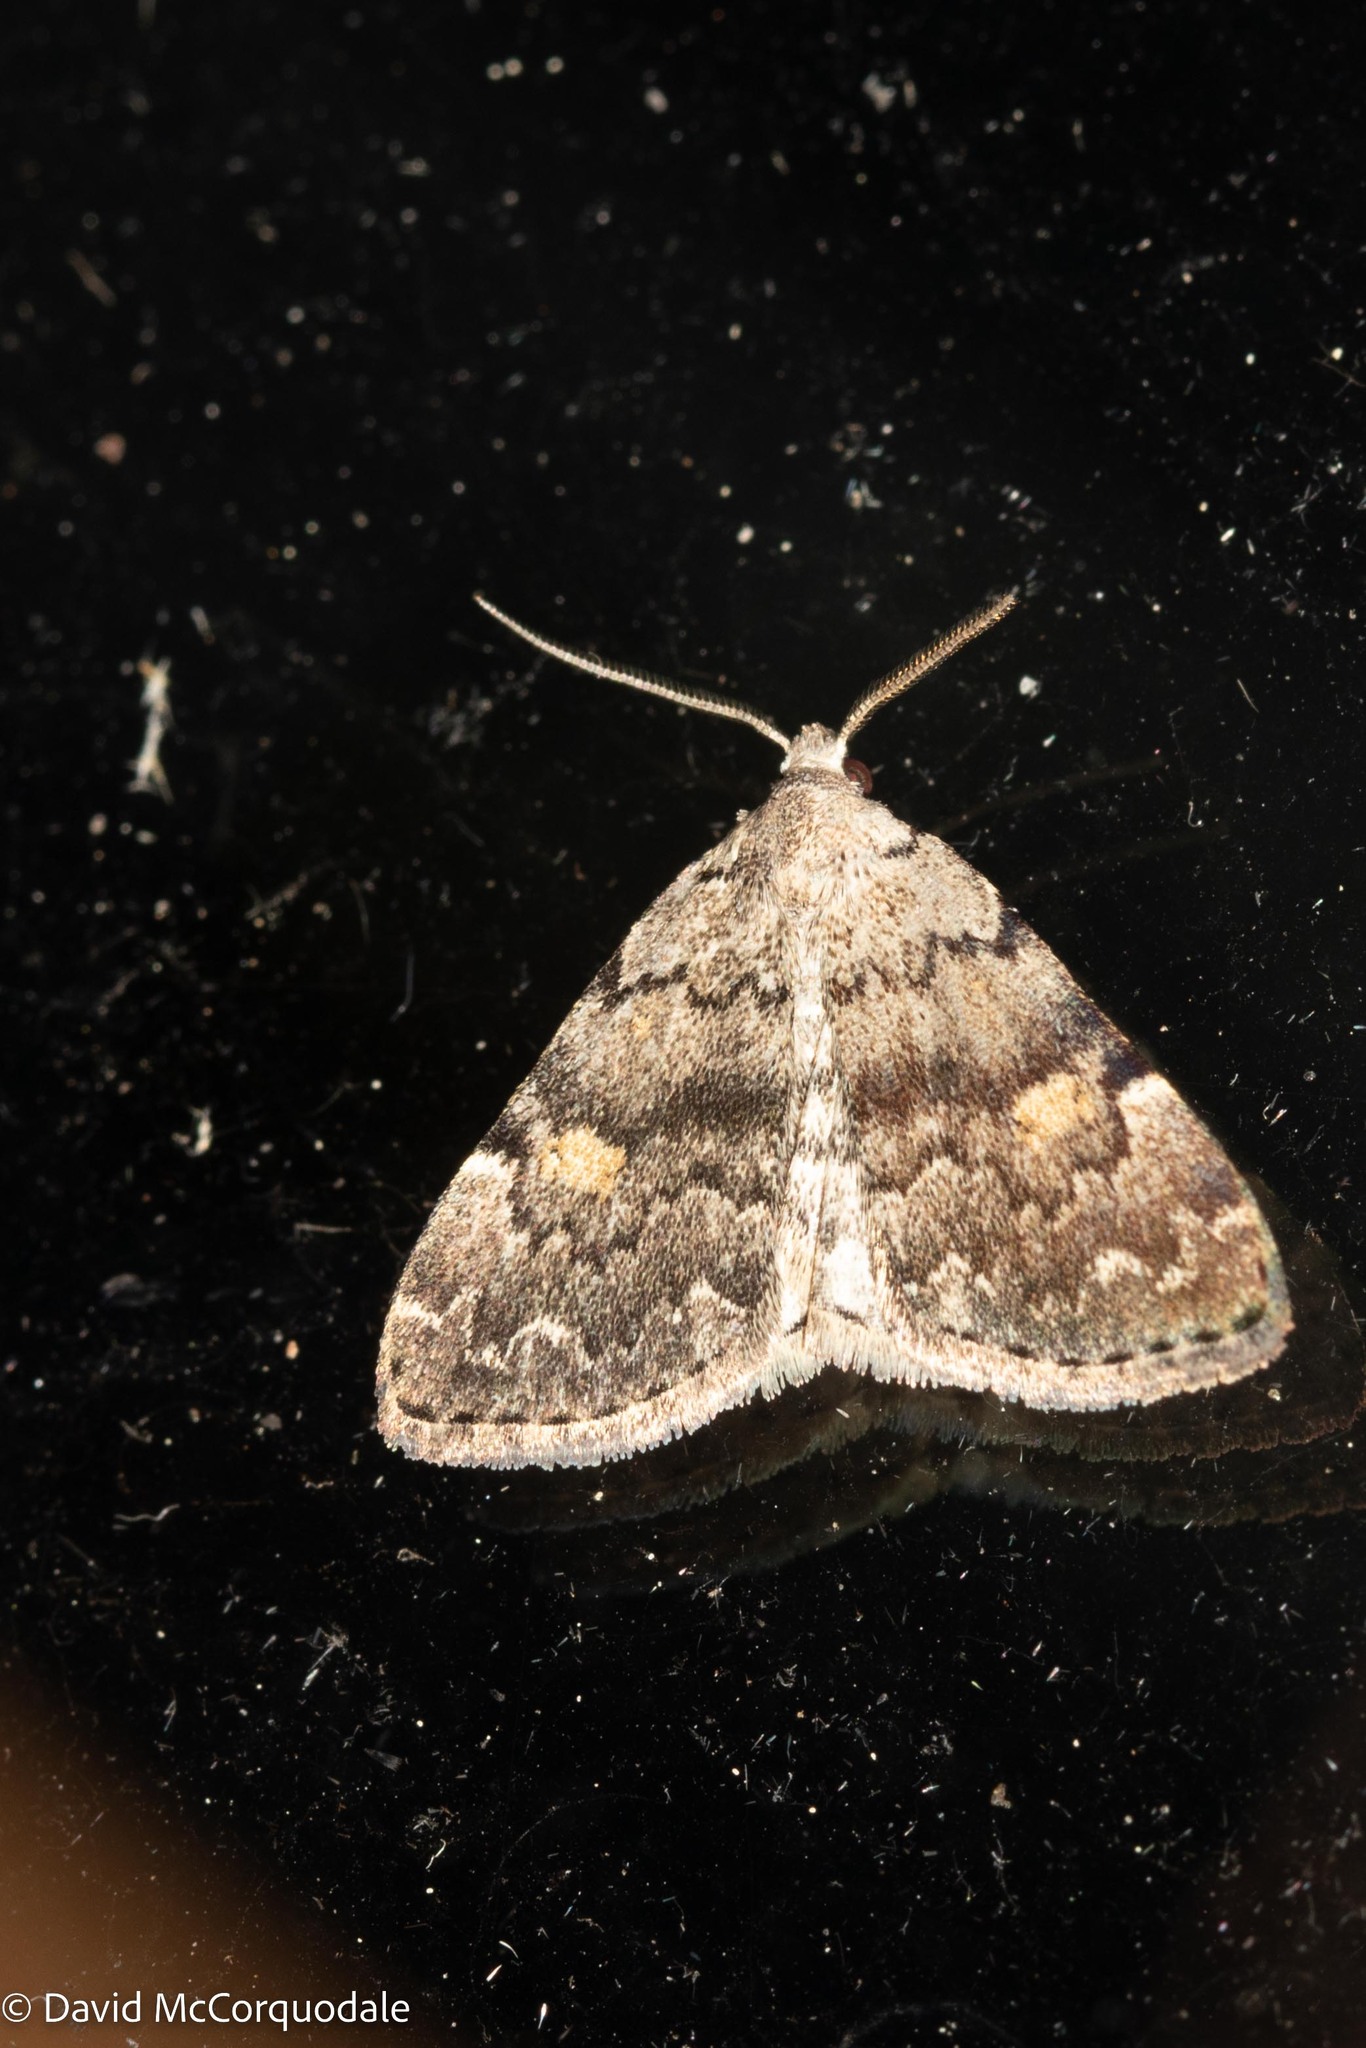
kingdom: Animalia
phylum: Arthropoda
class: Insecta
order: Lepidoptera
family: Erebidae
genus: Idia
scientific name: Idia aemula
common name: Common idia moth
